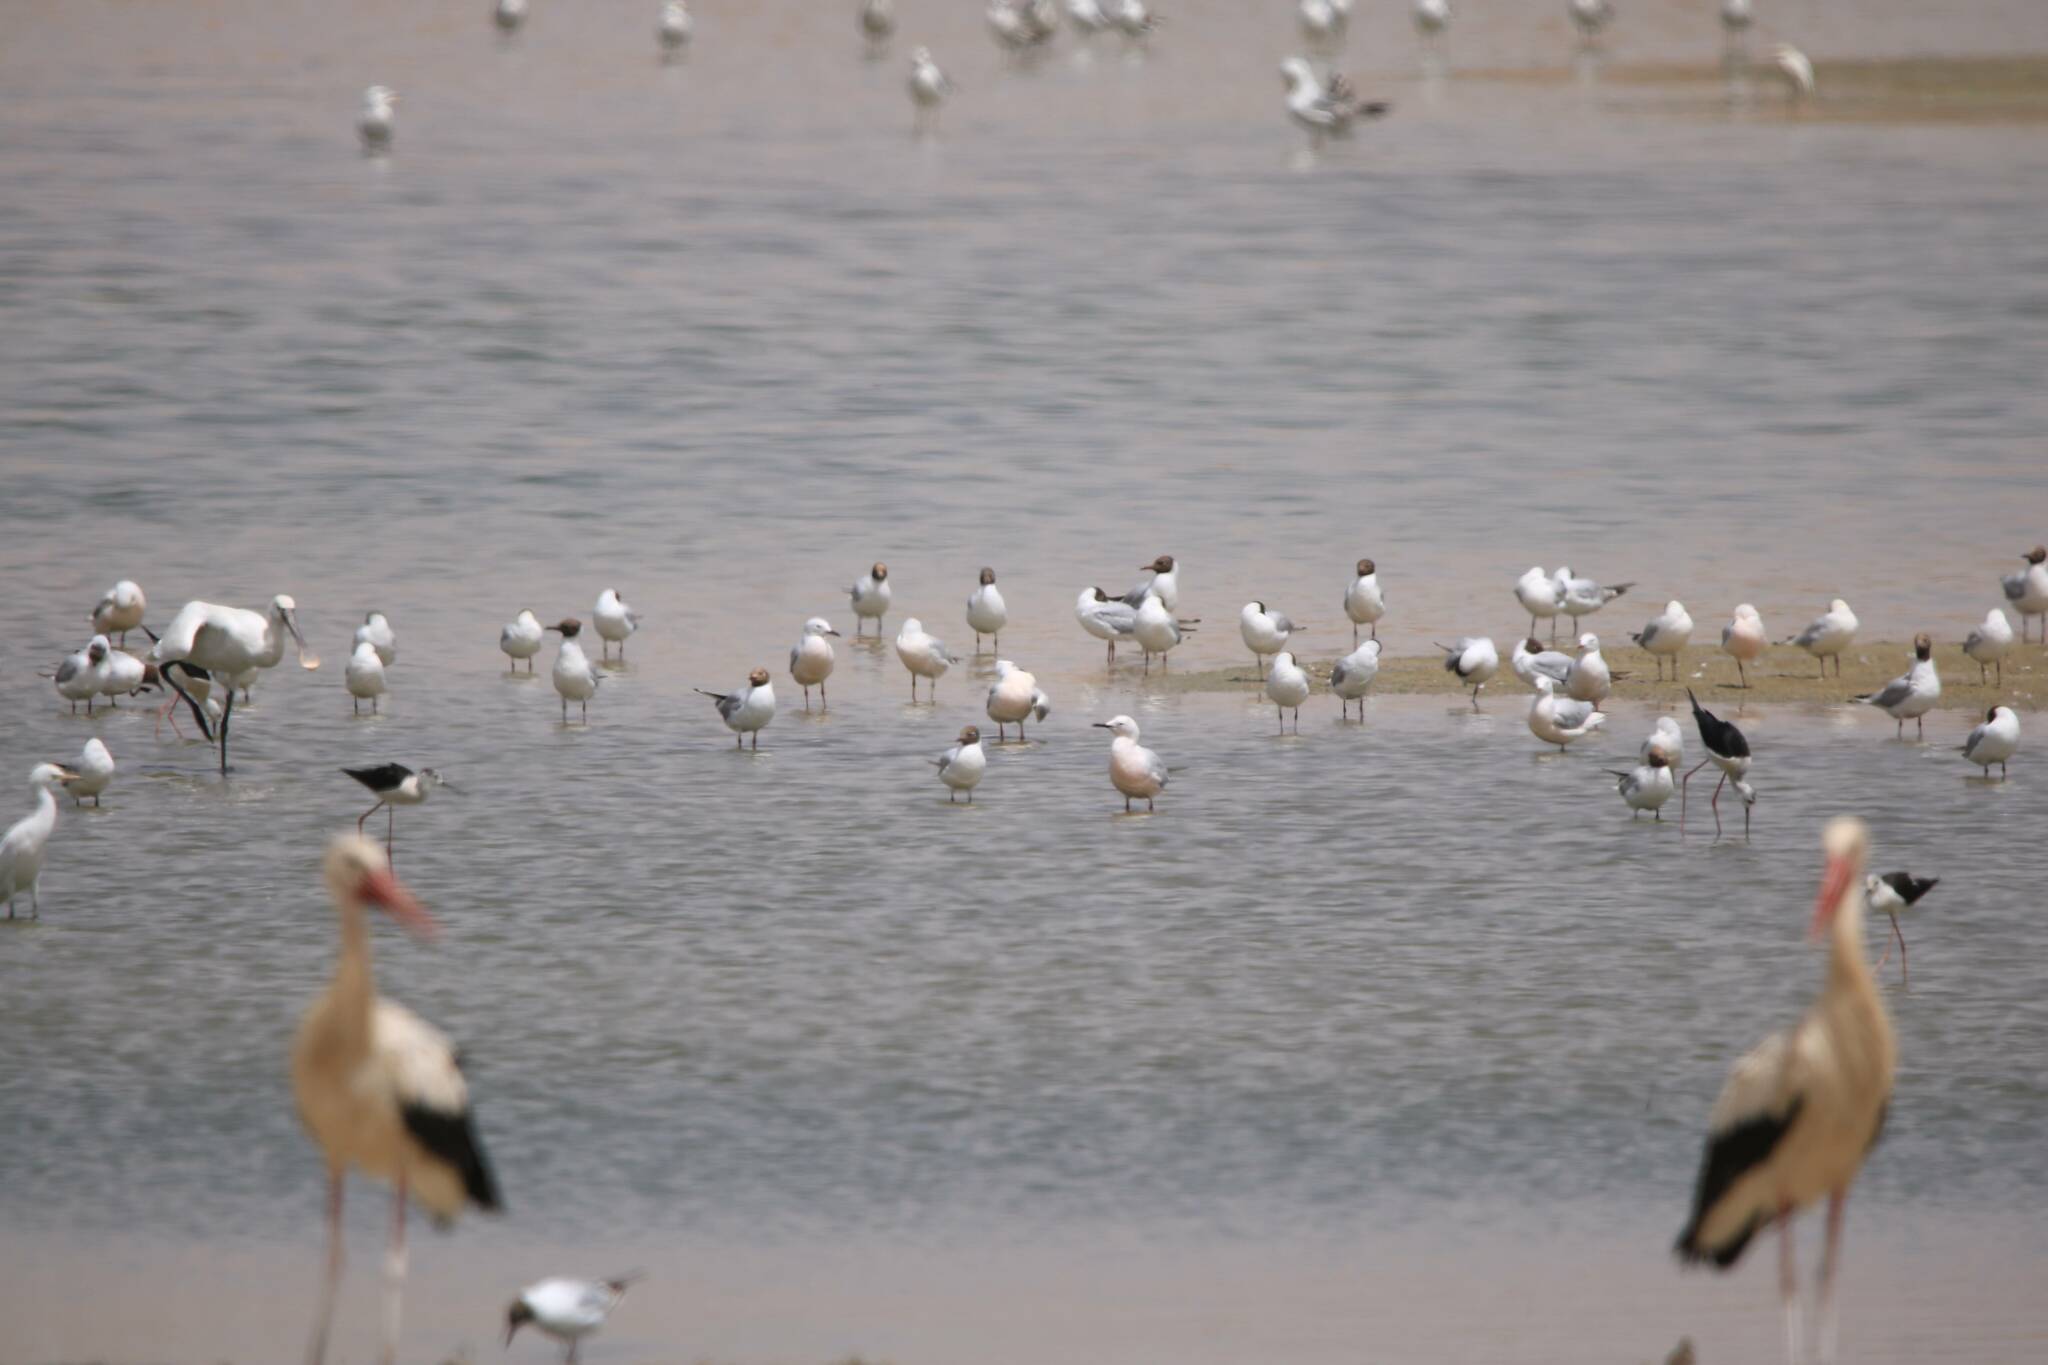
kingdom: Animalia
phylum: Chordata
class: Aves
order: Charadriiformes
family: Laridae
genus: Chroicocephalus
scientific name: Chroicocephalus ridibundus
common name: Black-headed gull
